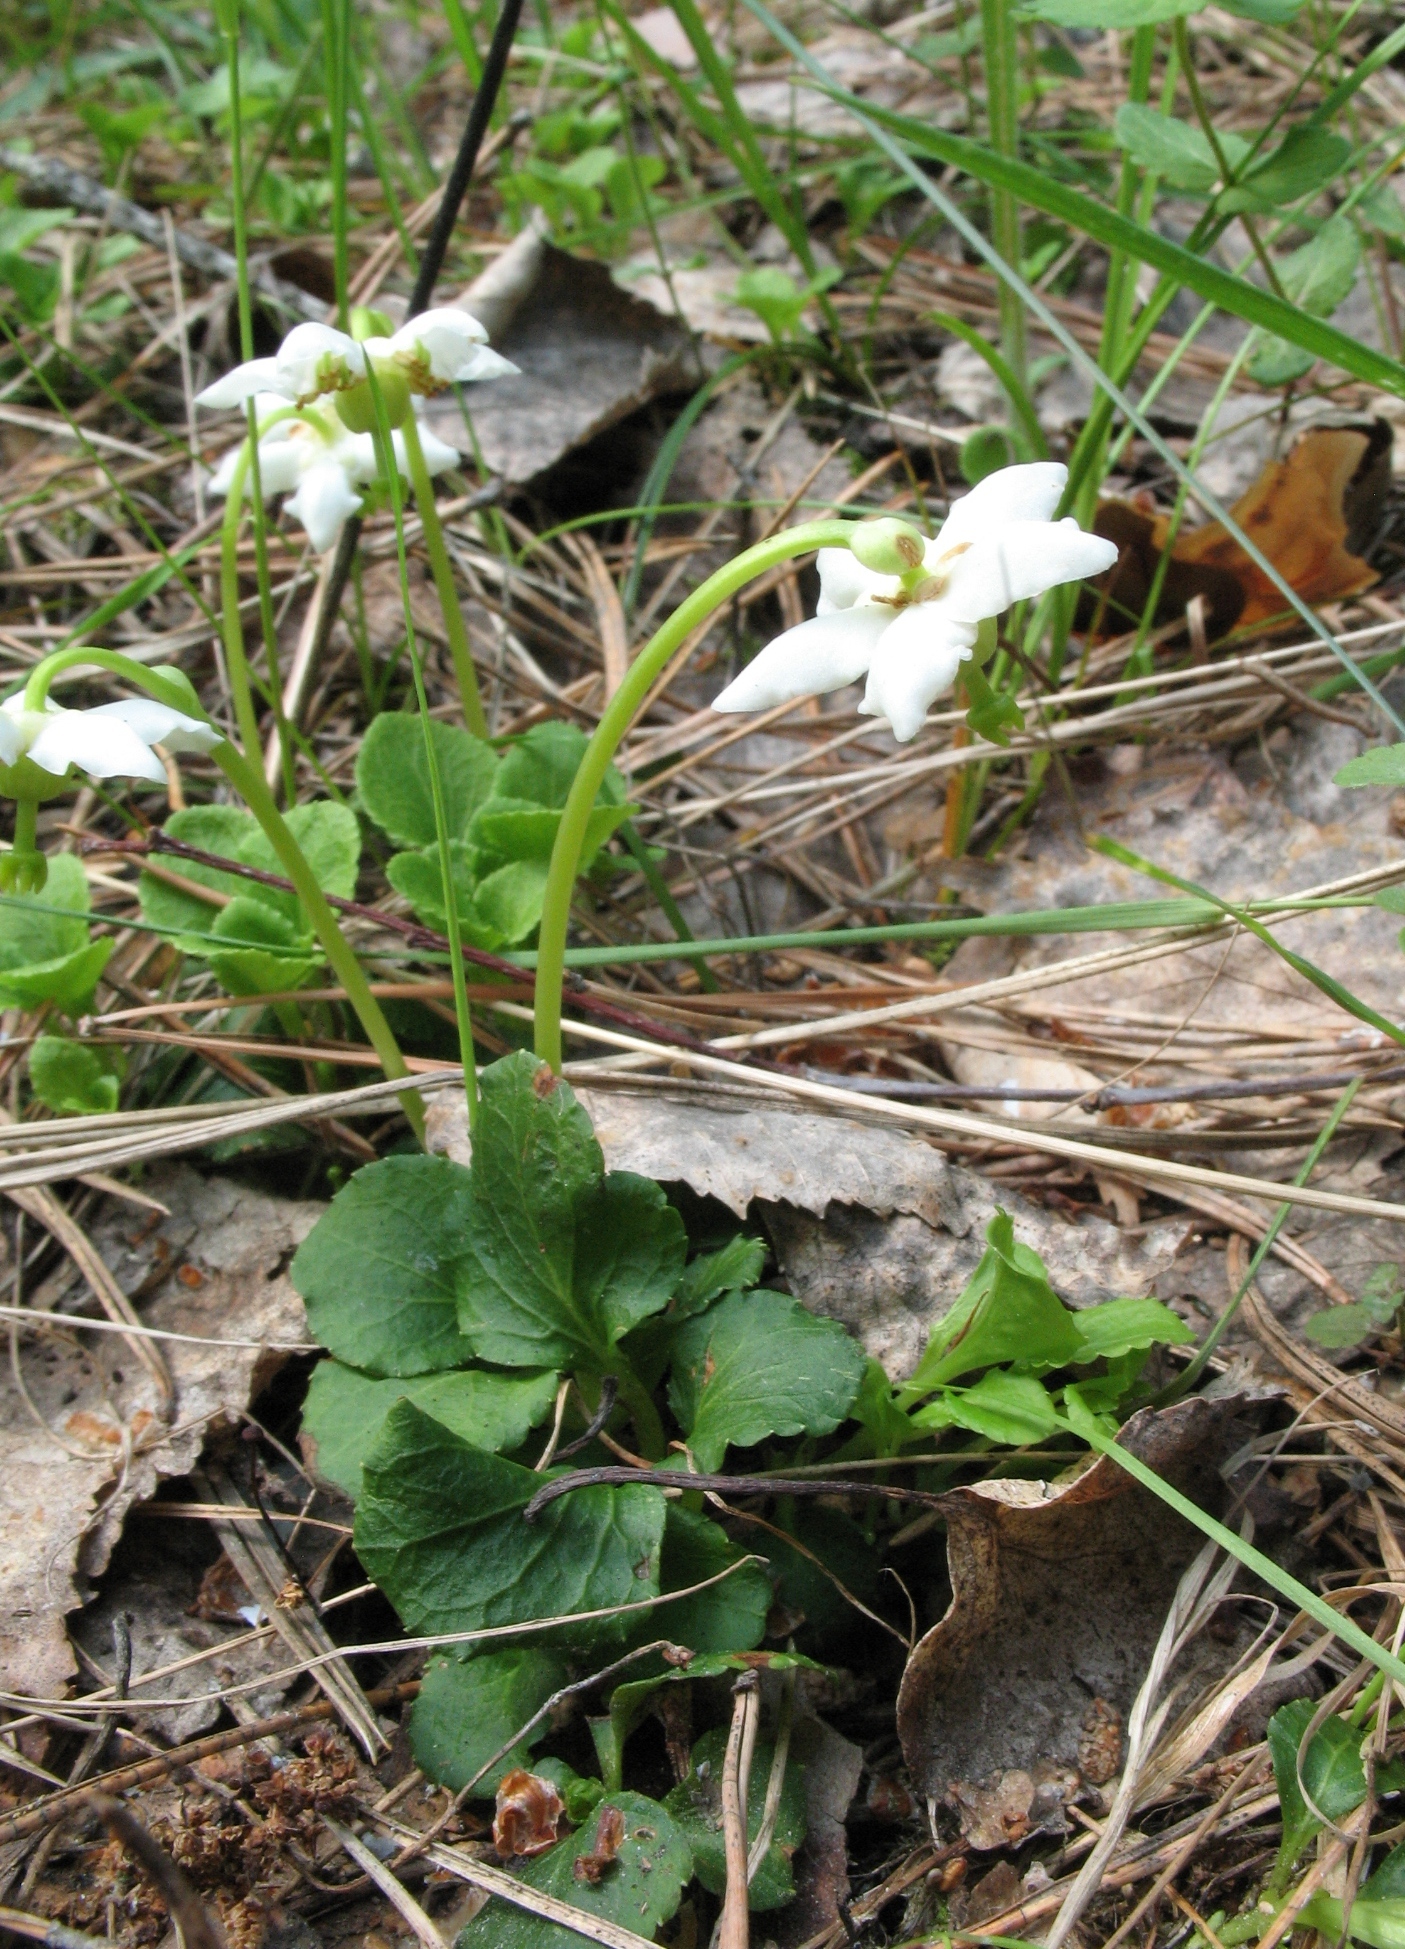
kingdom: Plantae
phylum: Tracheophyta
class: Magnoliopsida
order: Ericales
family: Ericaceae
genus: Moneses
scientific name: Moneses uniflora
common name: One-flowered wintergreen
